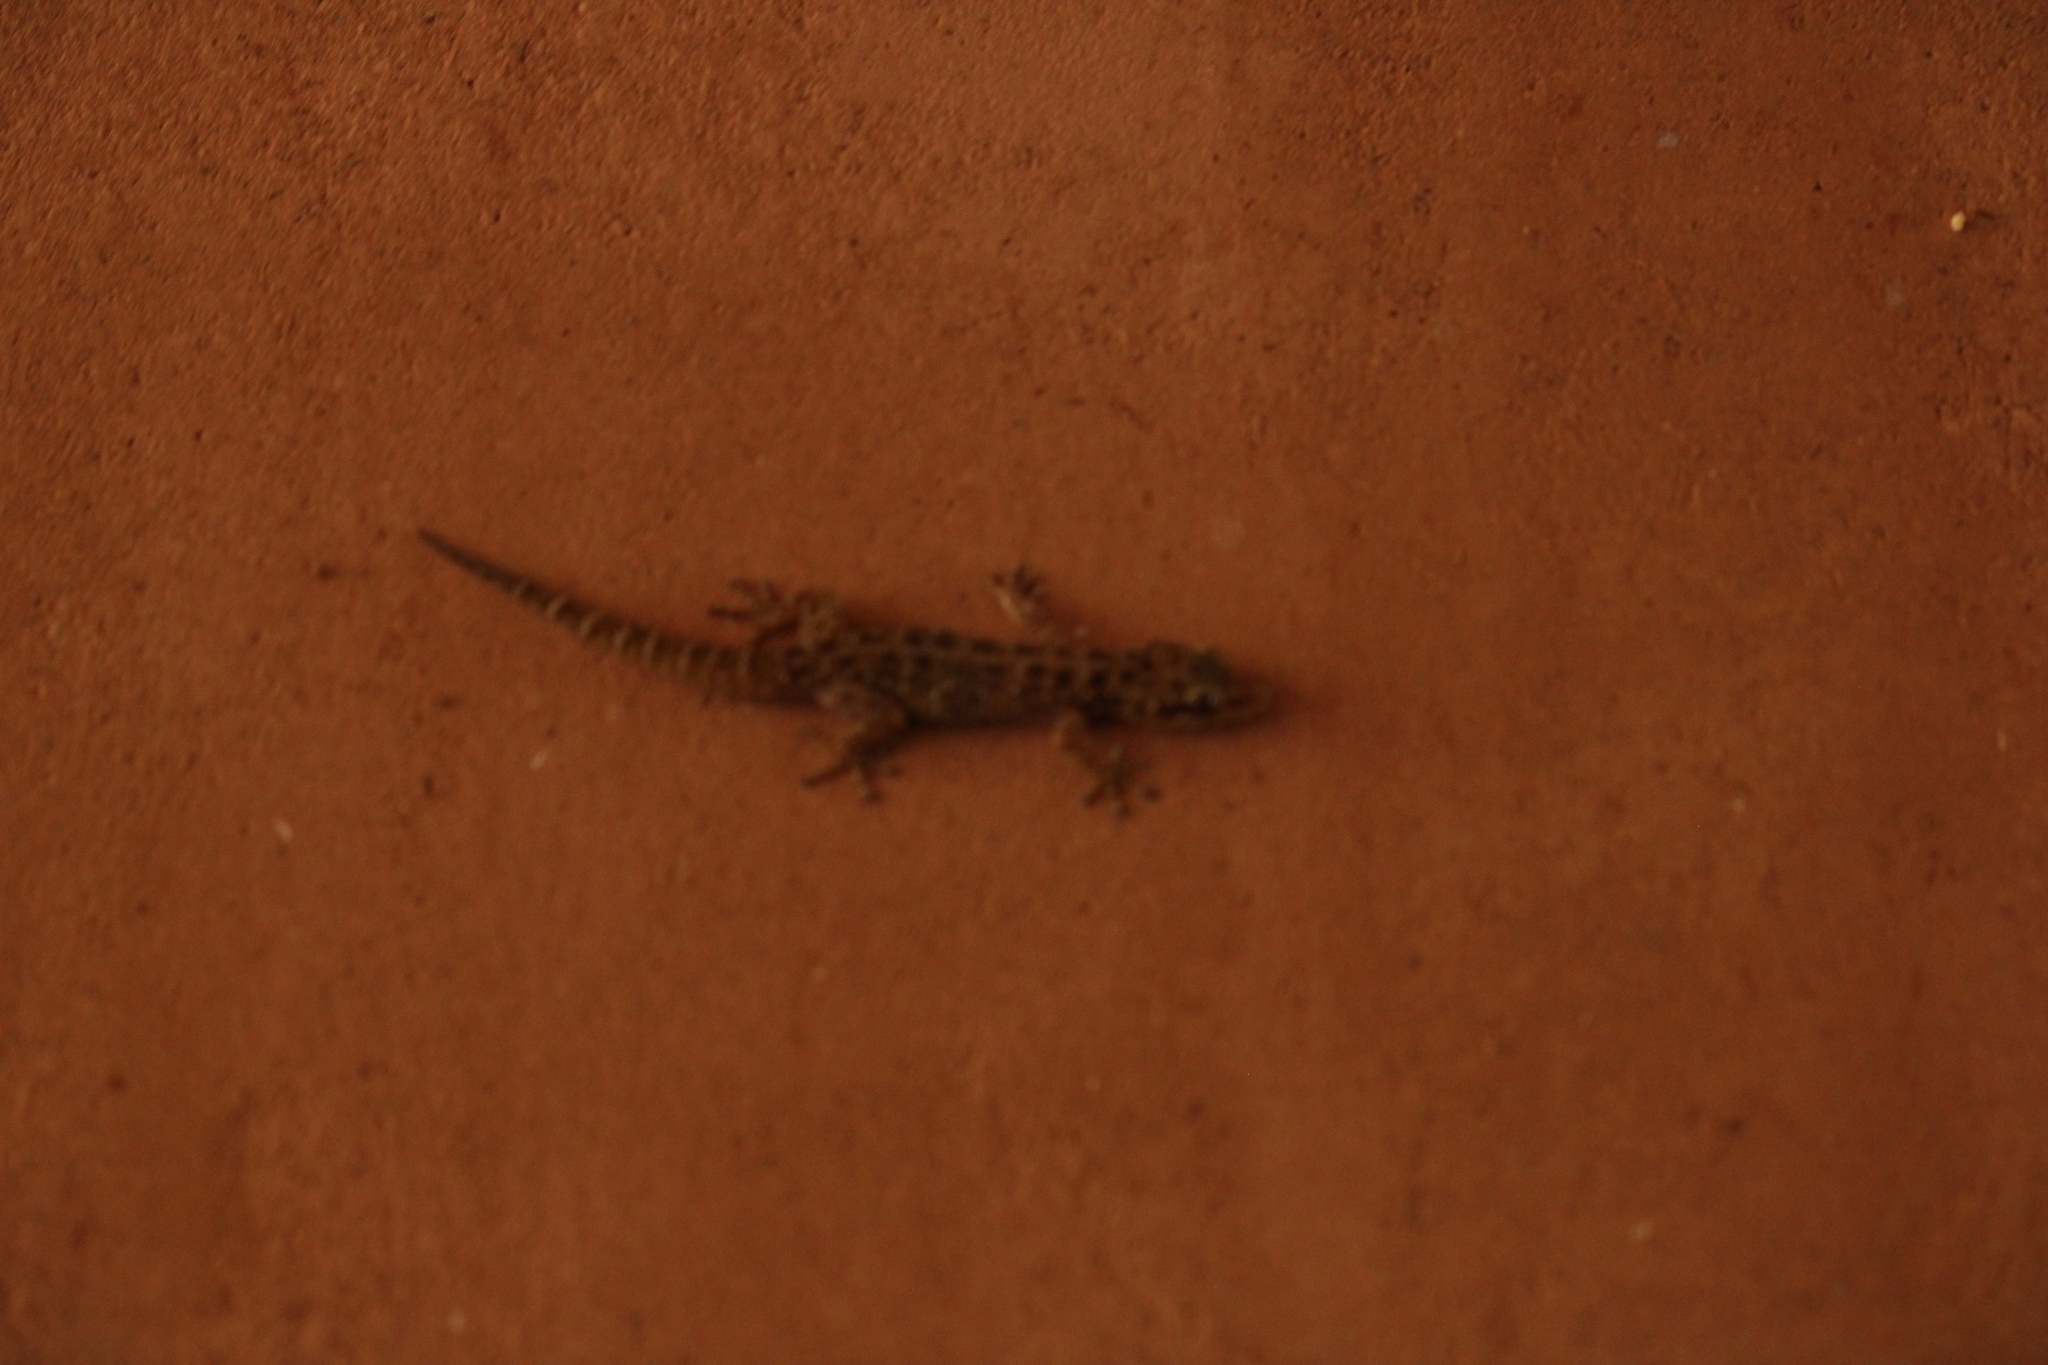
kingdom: Animalia
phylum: Chordata
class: Squamata
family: Phyllodactylidae
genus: Phyllodactylus
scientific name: Phyllodactylus tuberculosus
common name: Yellowbelly  gecko
